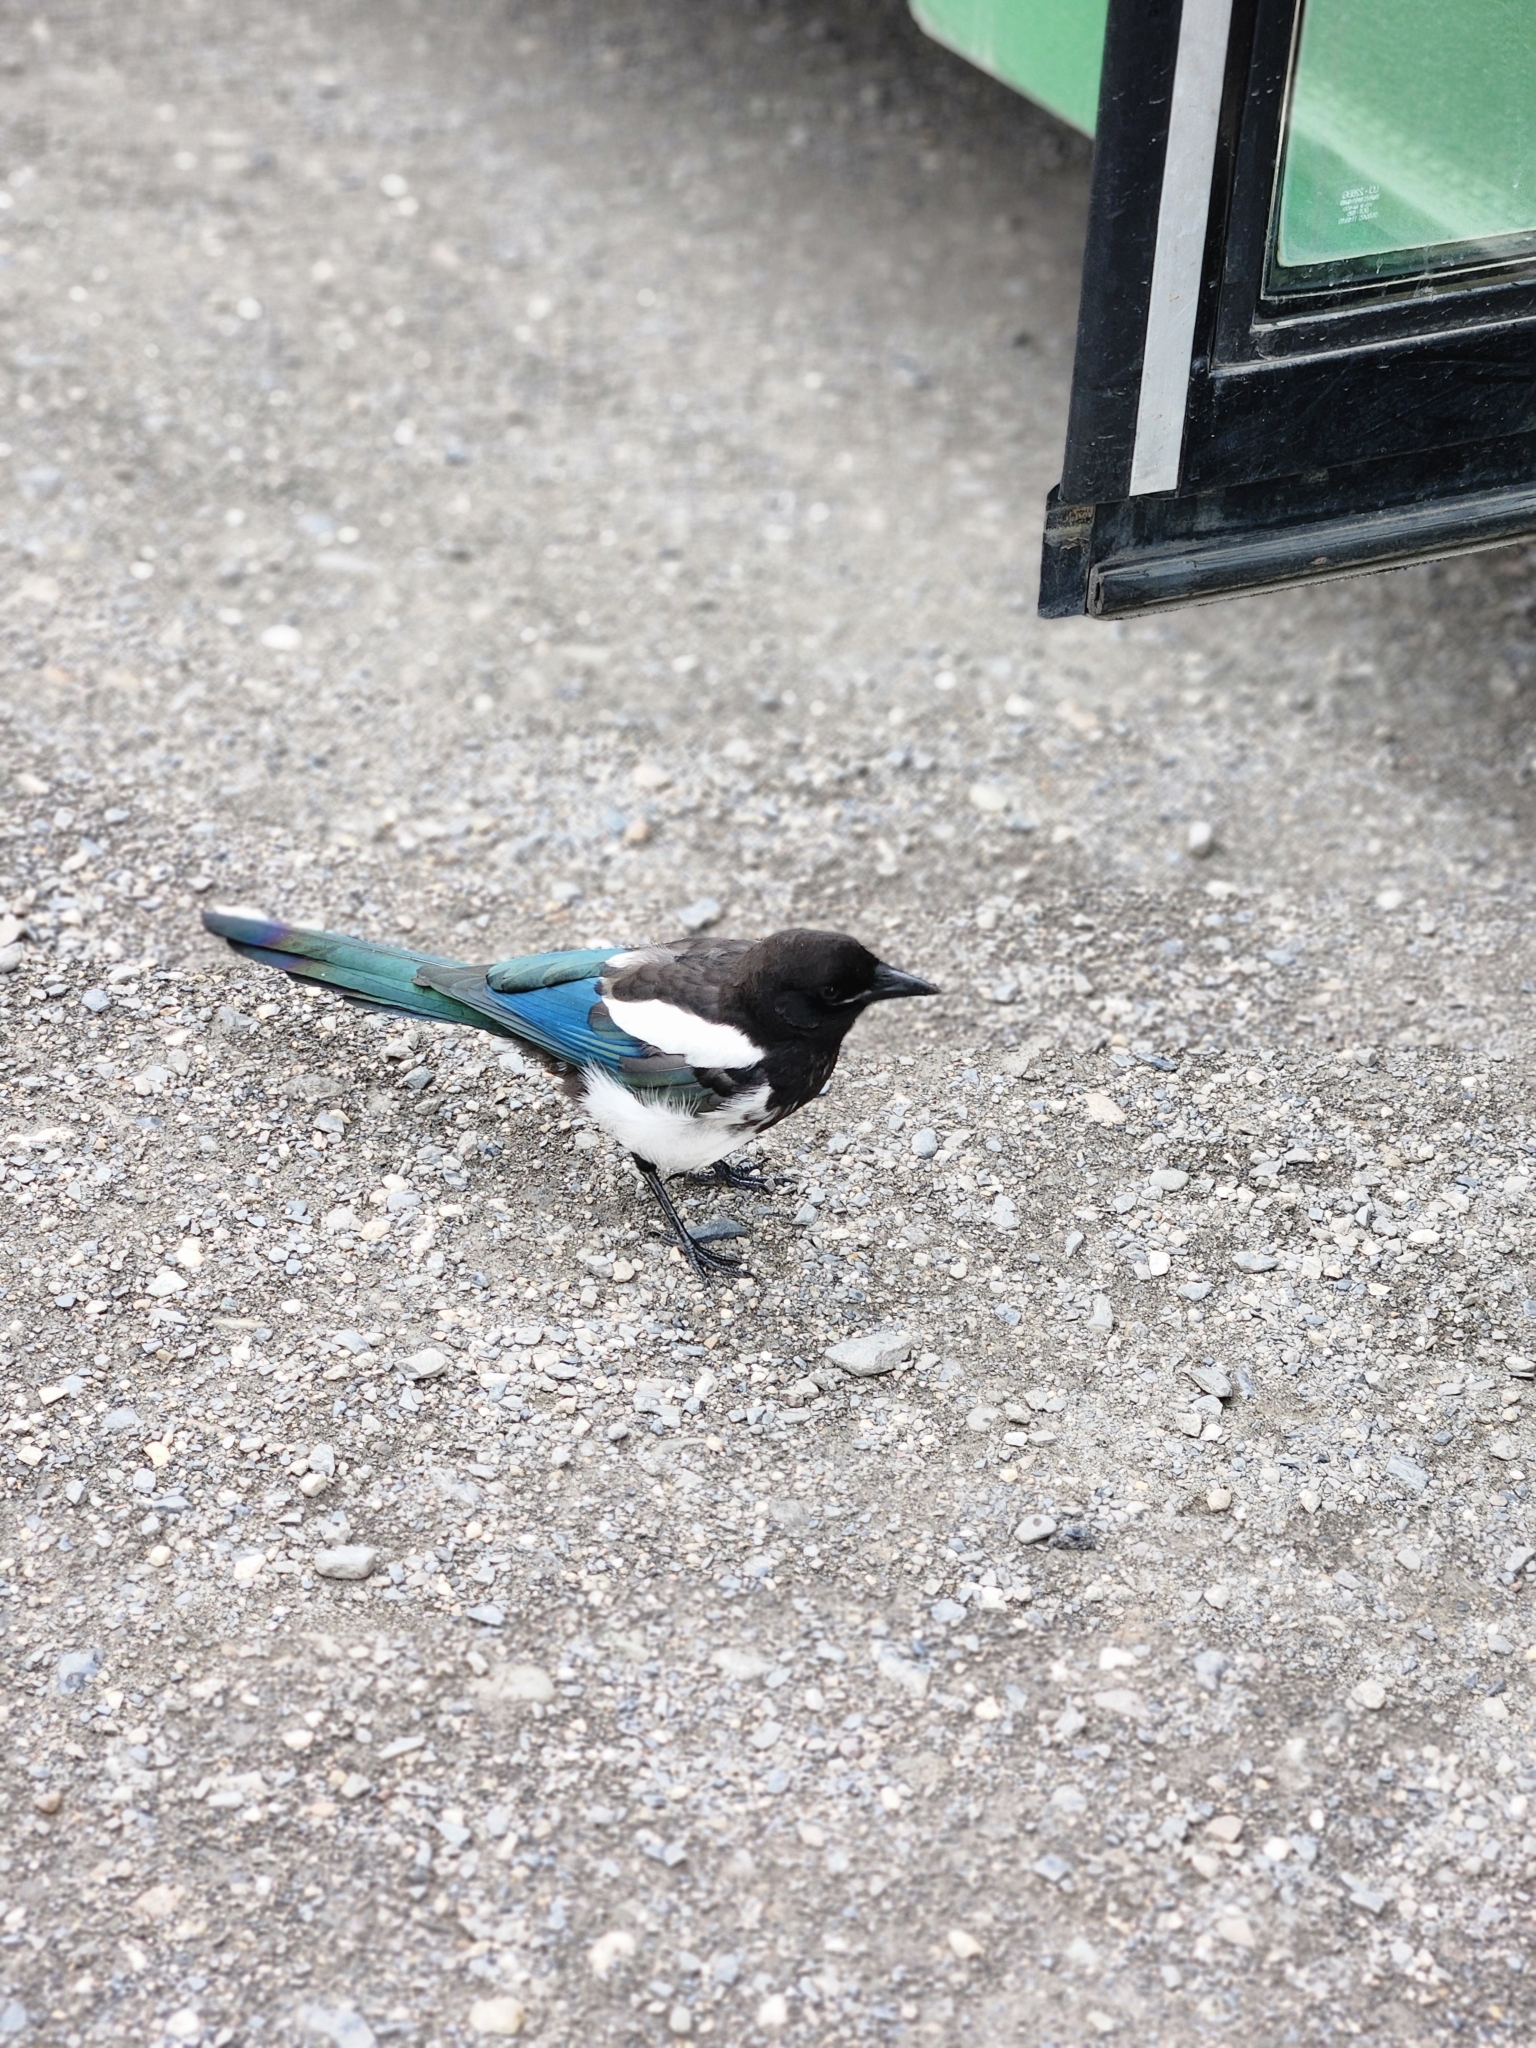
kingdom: Animalia
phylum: Chordata
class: Aves
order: Passeriformes
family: Corvidae
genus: Pica
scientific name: Pica hudsonia
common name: Black-billed magpie
